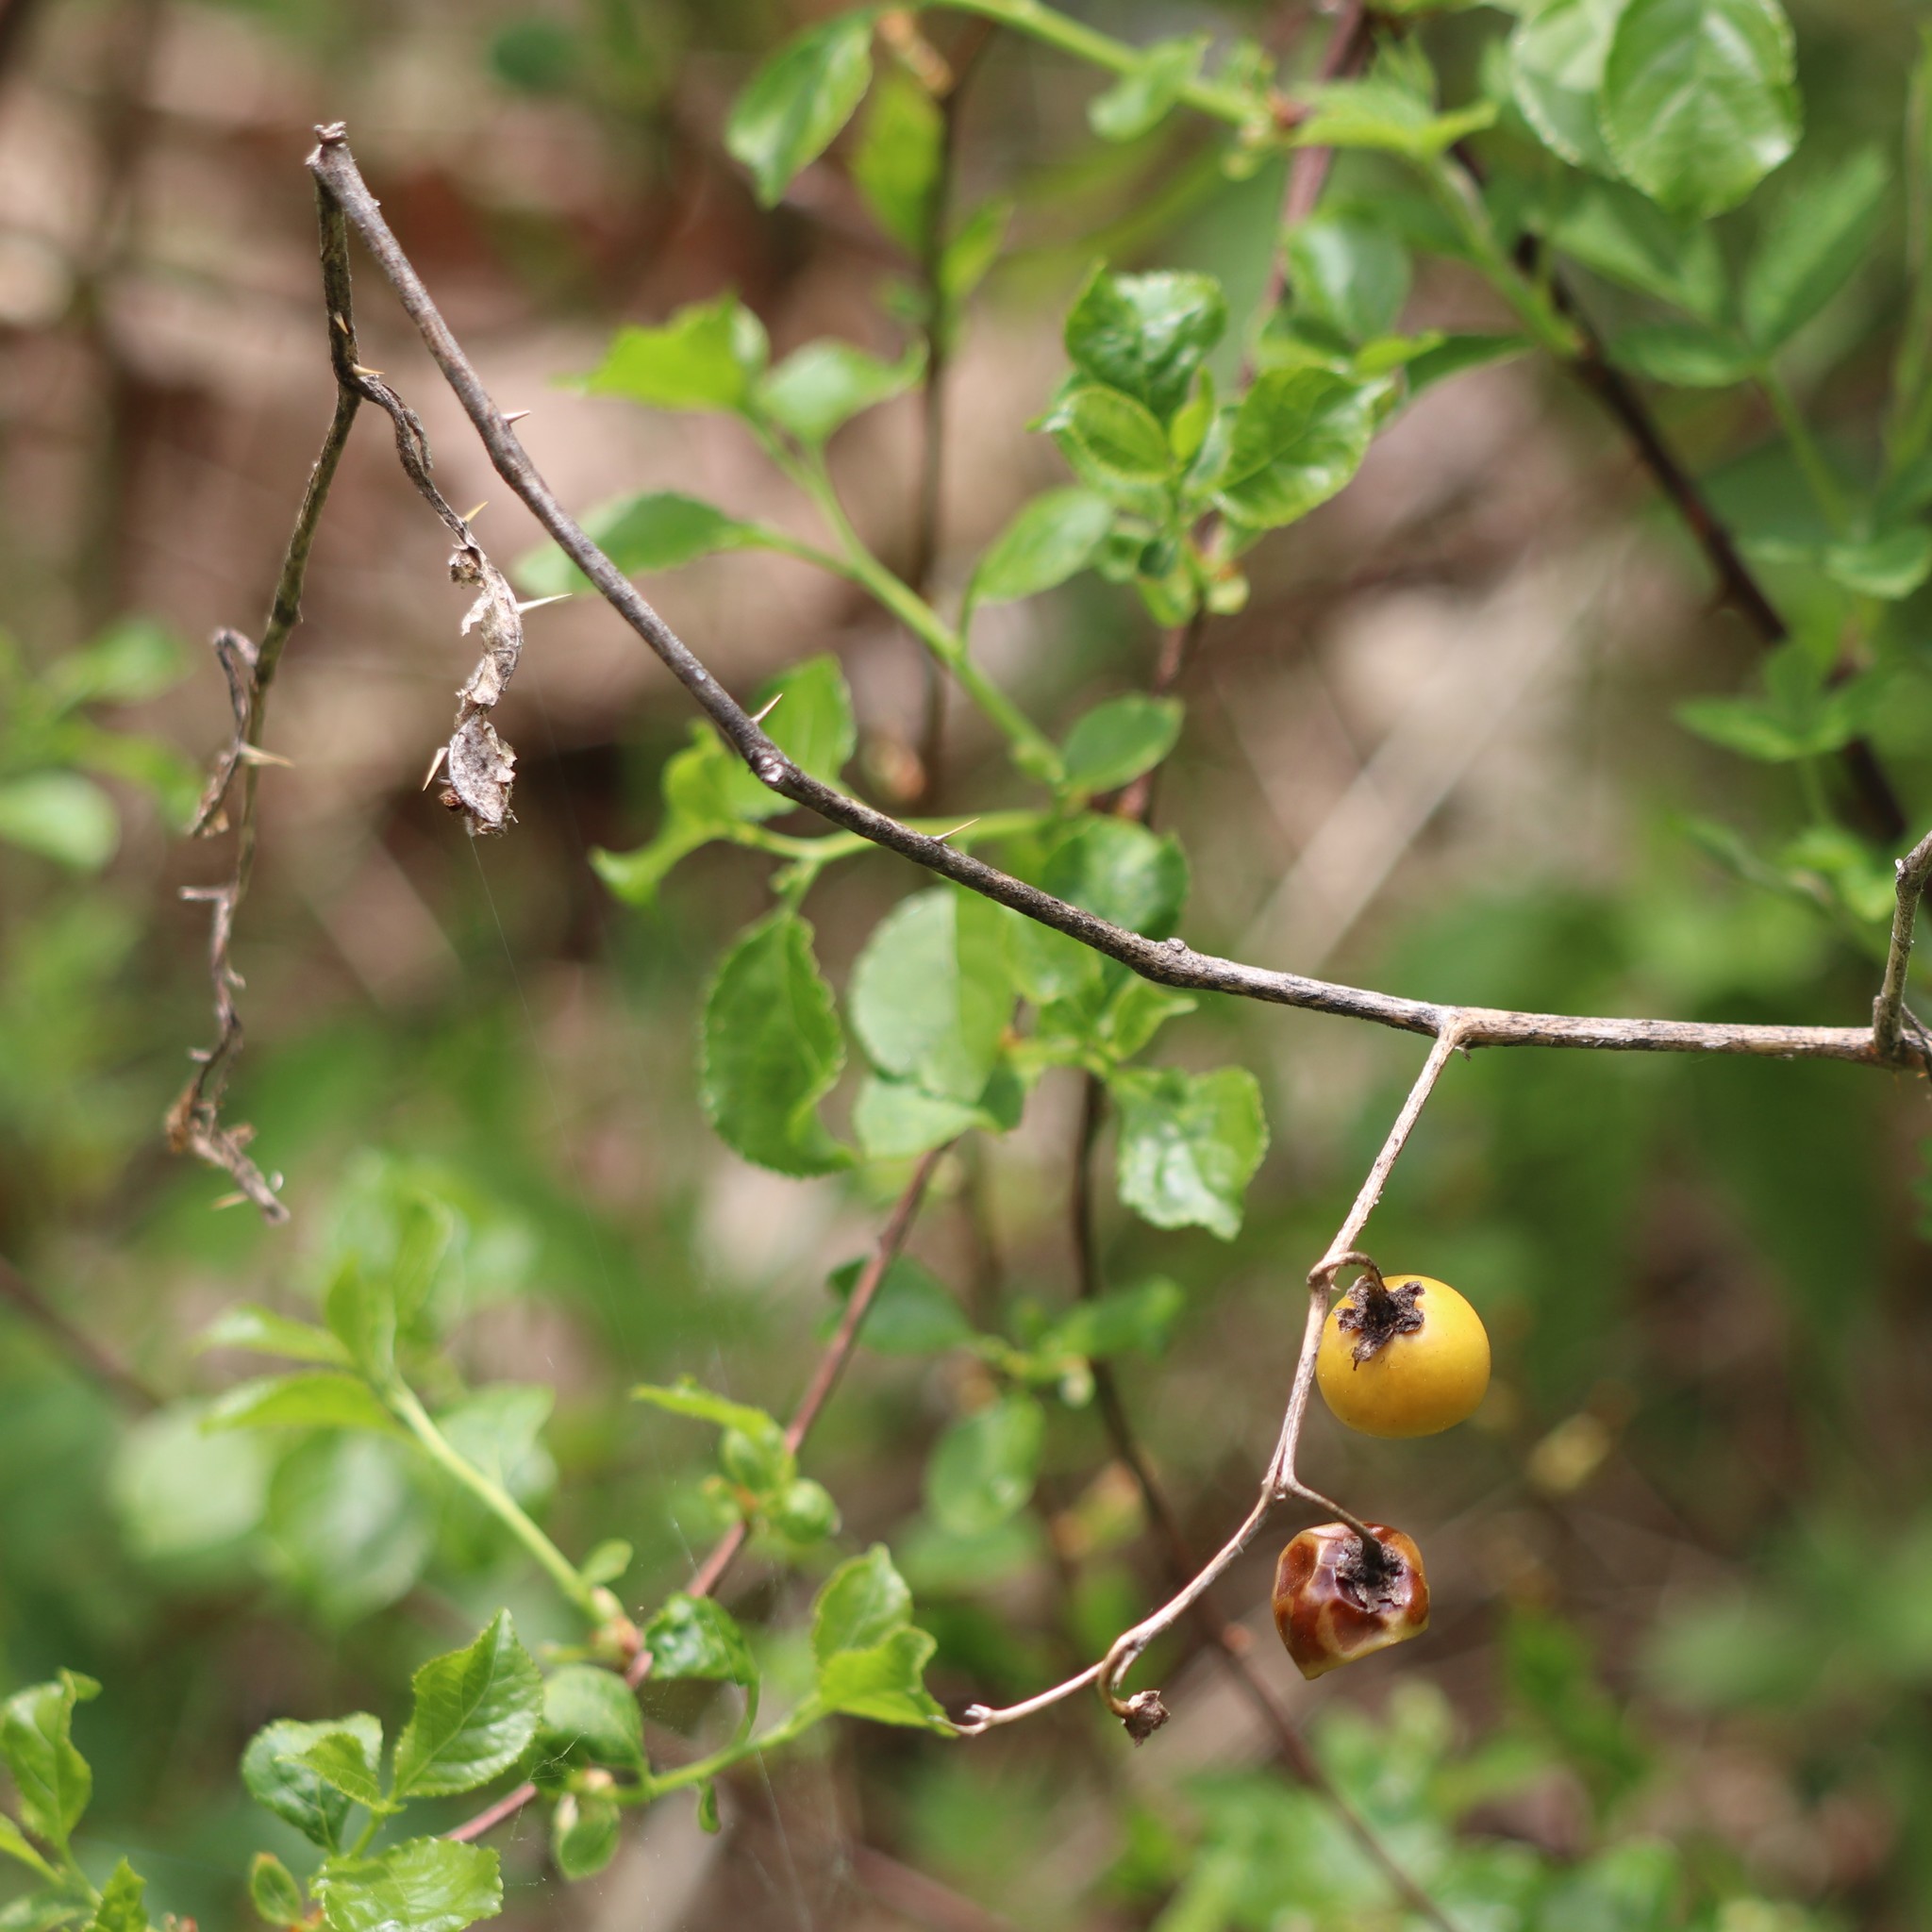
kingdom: Plantae
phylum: Tracheophyta
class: Magnoliopsida
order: Solanales
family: Solanaceae
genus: Solanum
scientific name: Solanum carolinense
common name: Horse-nettle
